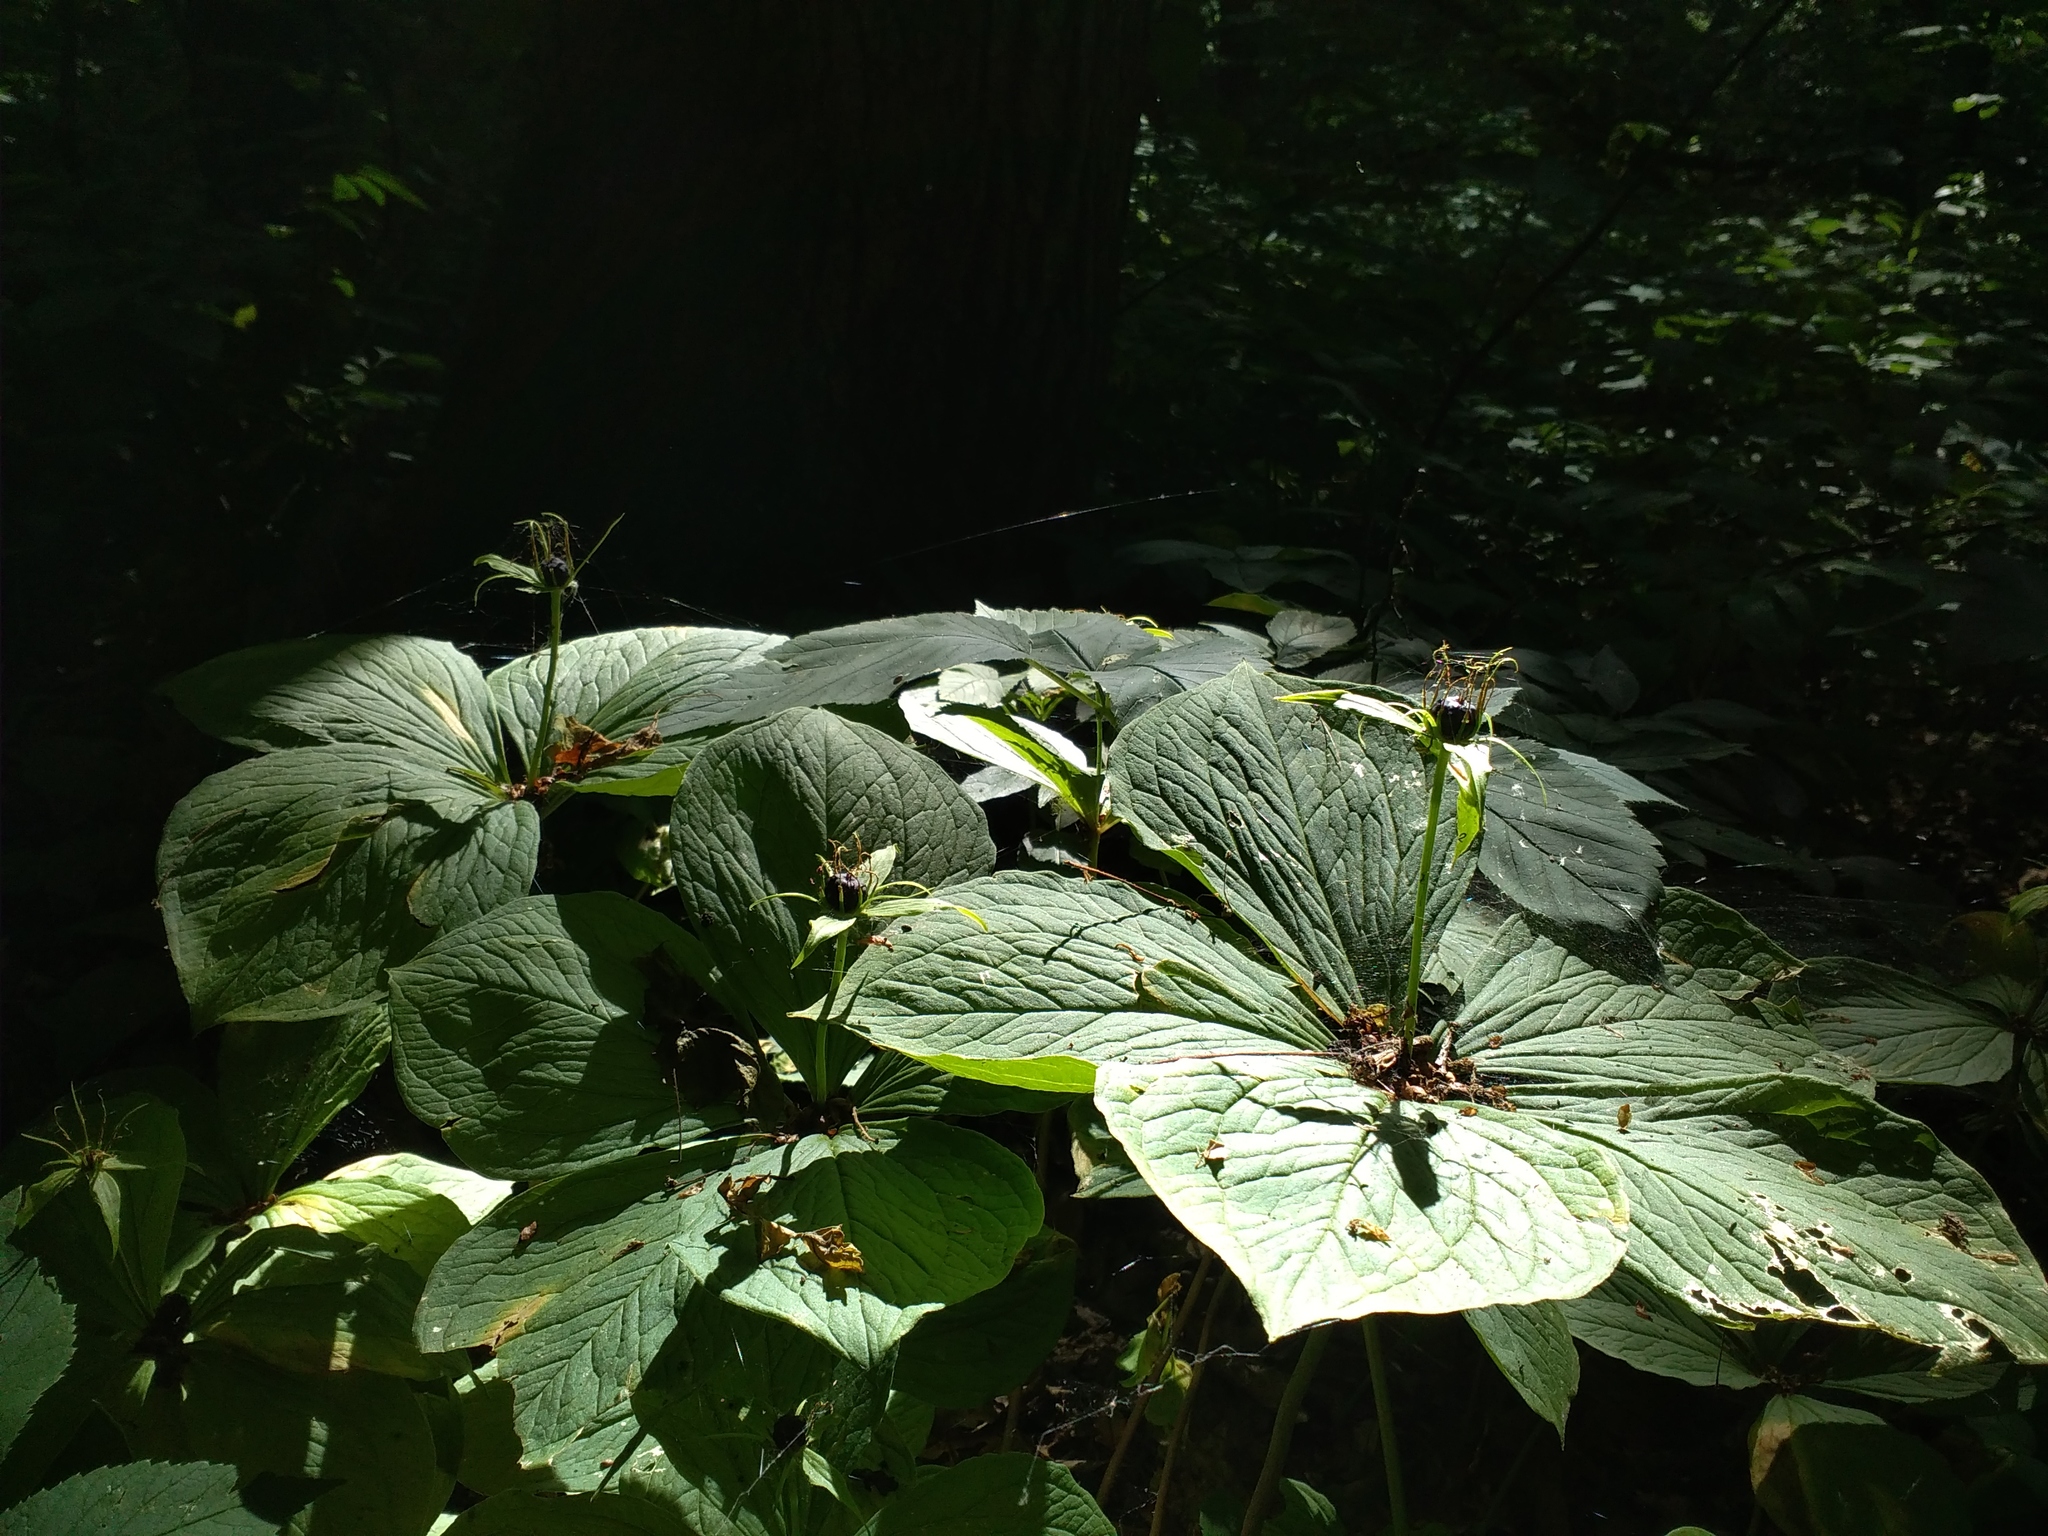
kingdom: Plantae
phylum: Tracheophyta
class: Liliopsida
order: Liliales
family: Melanthiaceae
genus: Paris
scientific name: Paris quadrifolia
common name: Herb-paris
